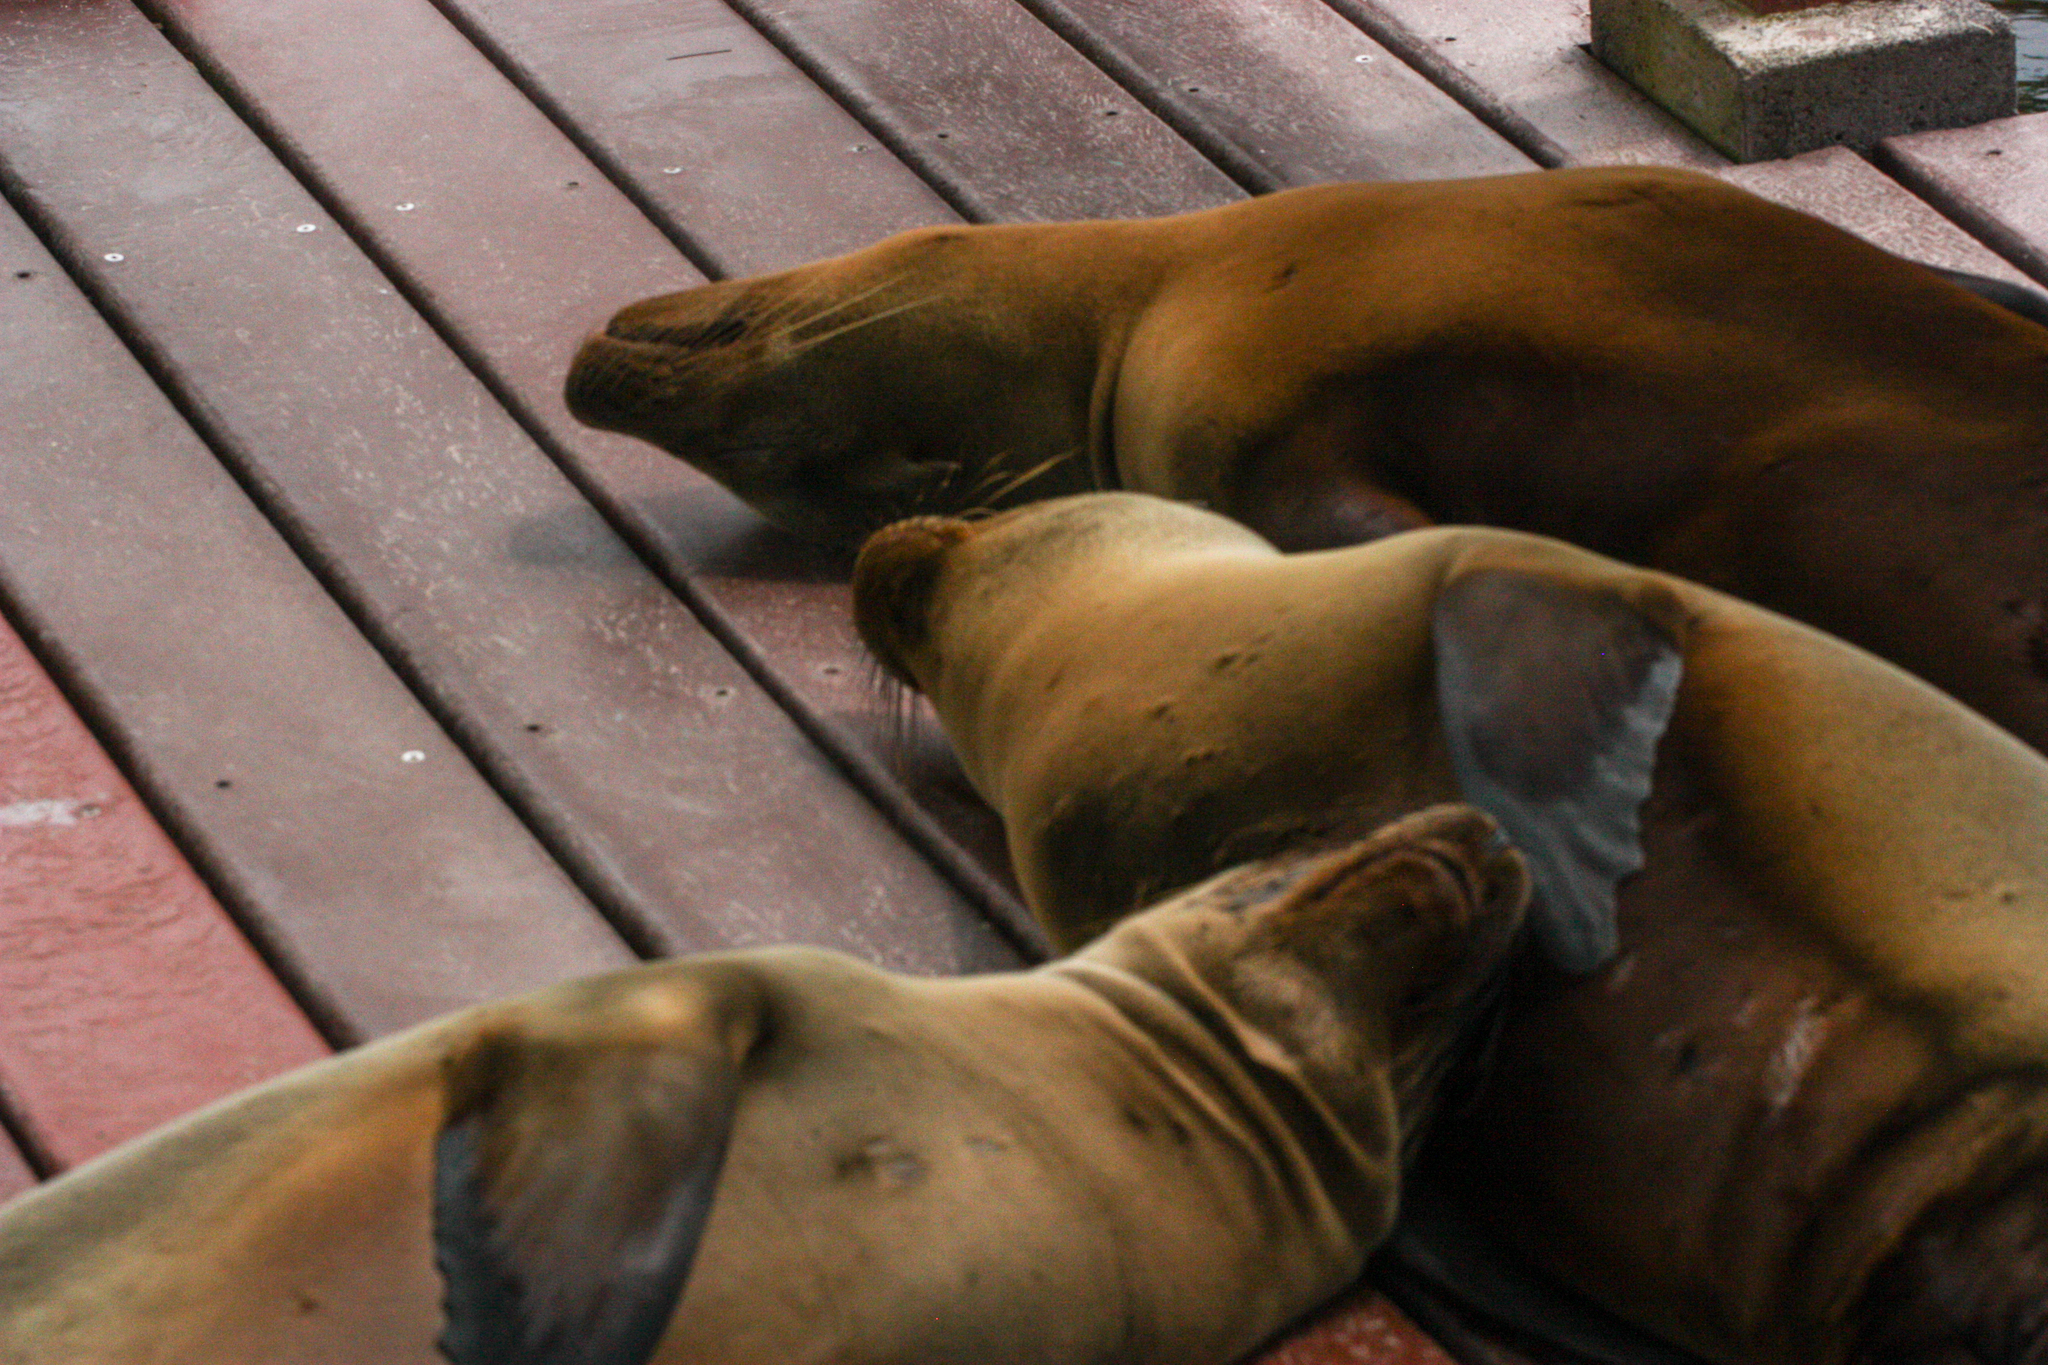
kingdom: Animalia
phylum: Chordata
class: Mammalia
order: Carnivora
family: Otariidae
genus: Zalophus
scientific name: Zalophus wollebaeki
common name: Galapagos sea lion
